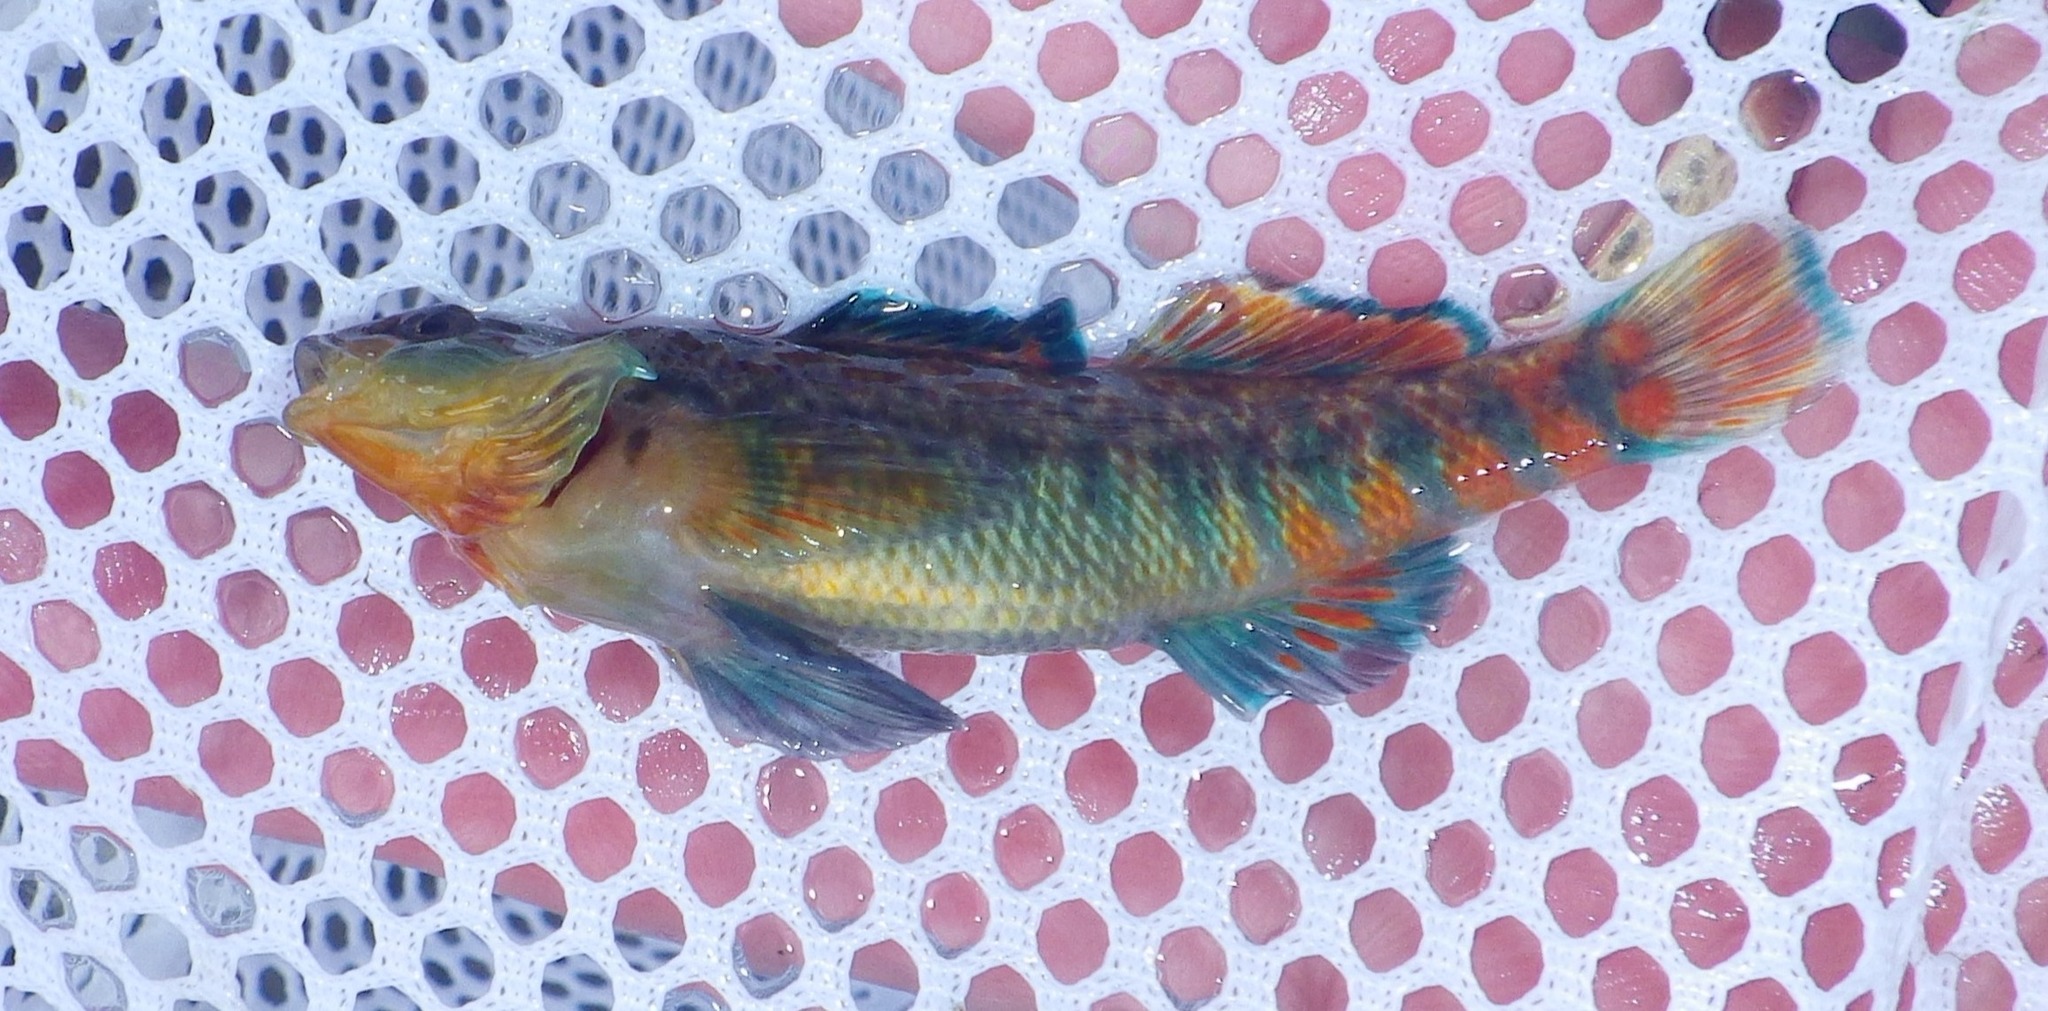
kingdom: Animalia
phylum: Chordata
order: Perciformes
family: Percidae
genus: Etheostoma
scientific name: Etheostoma caeruleum
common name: Rainbow darter
